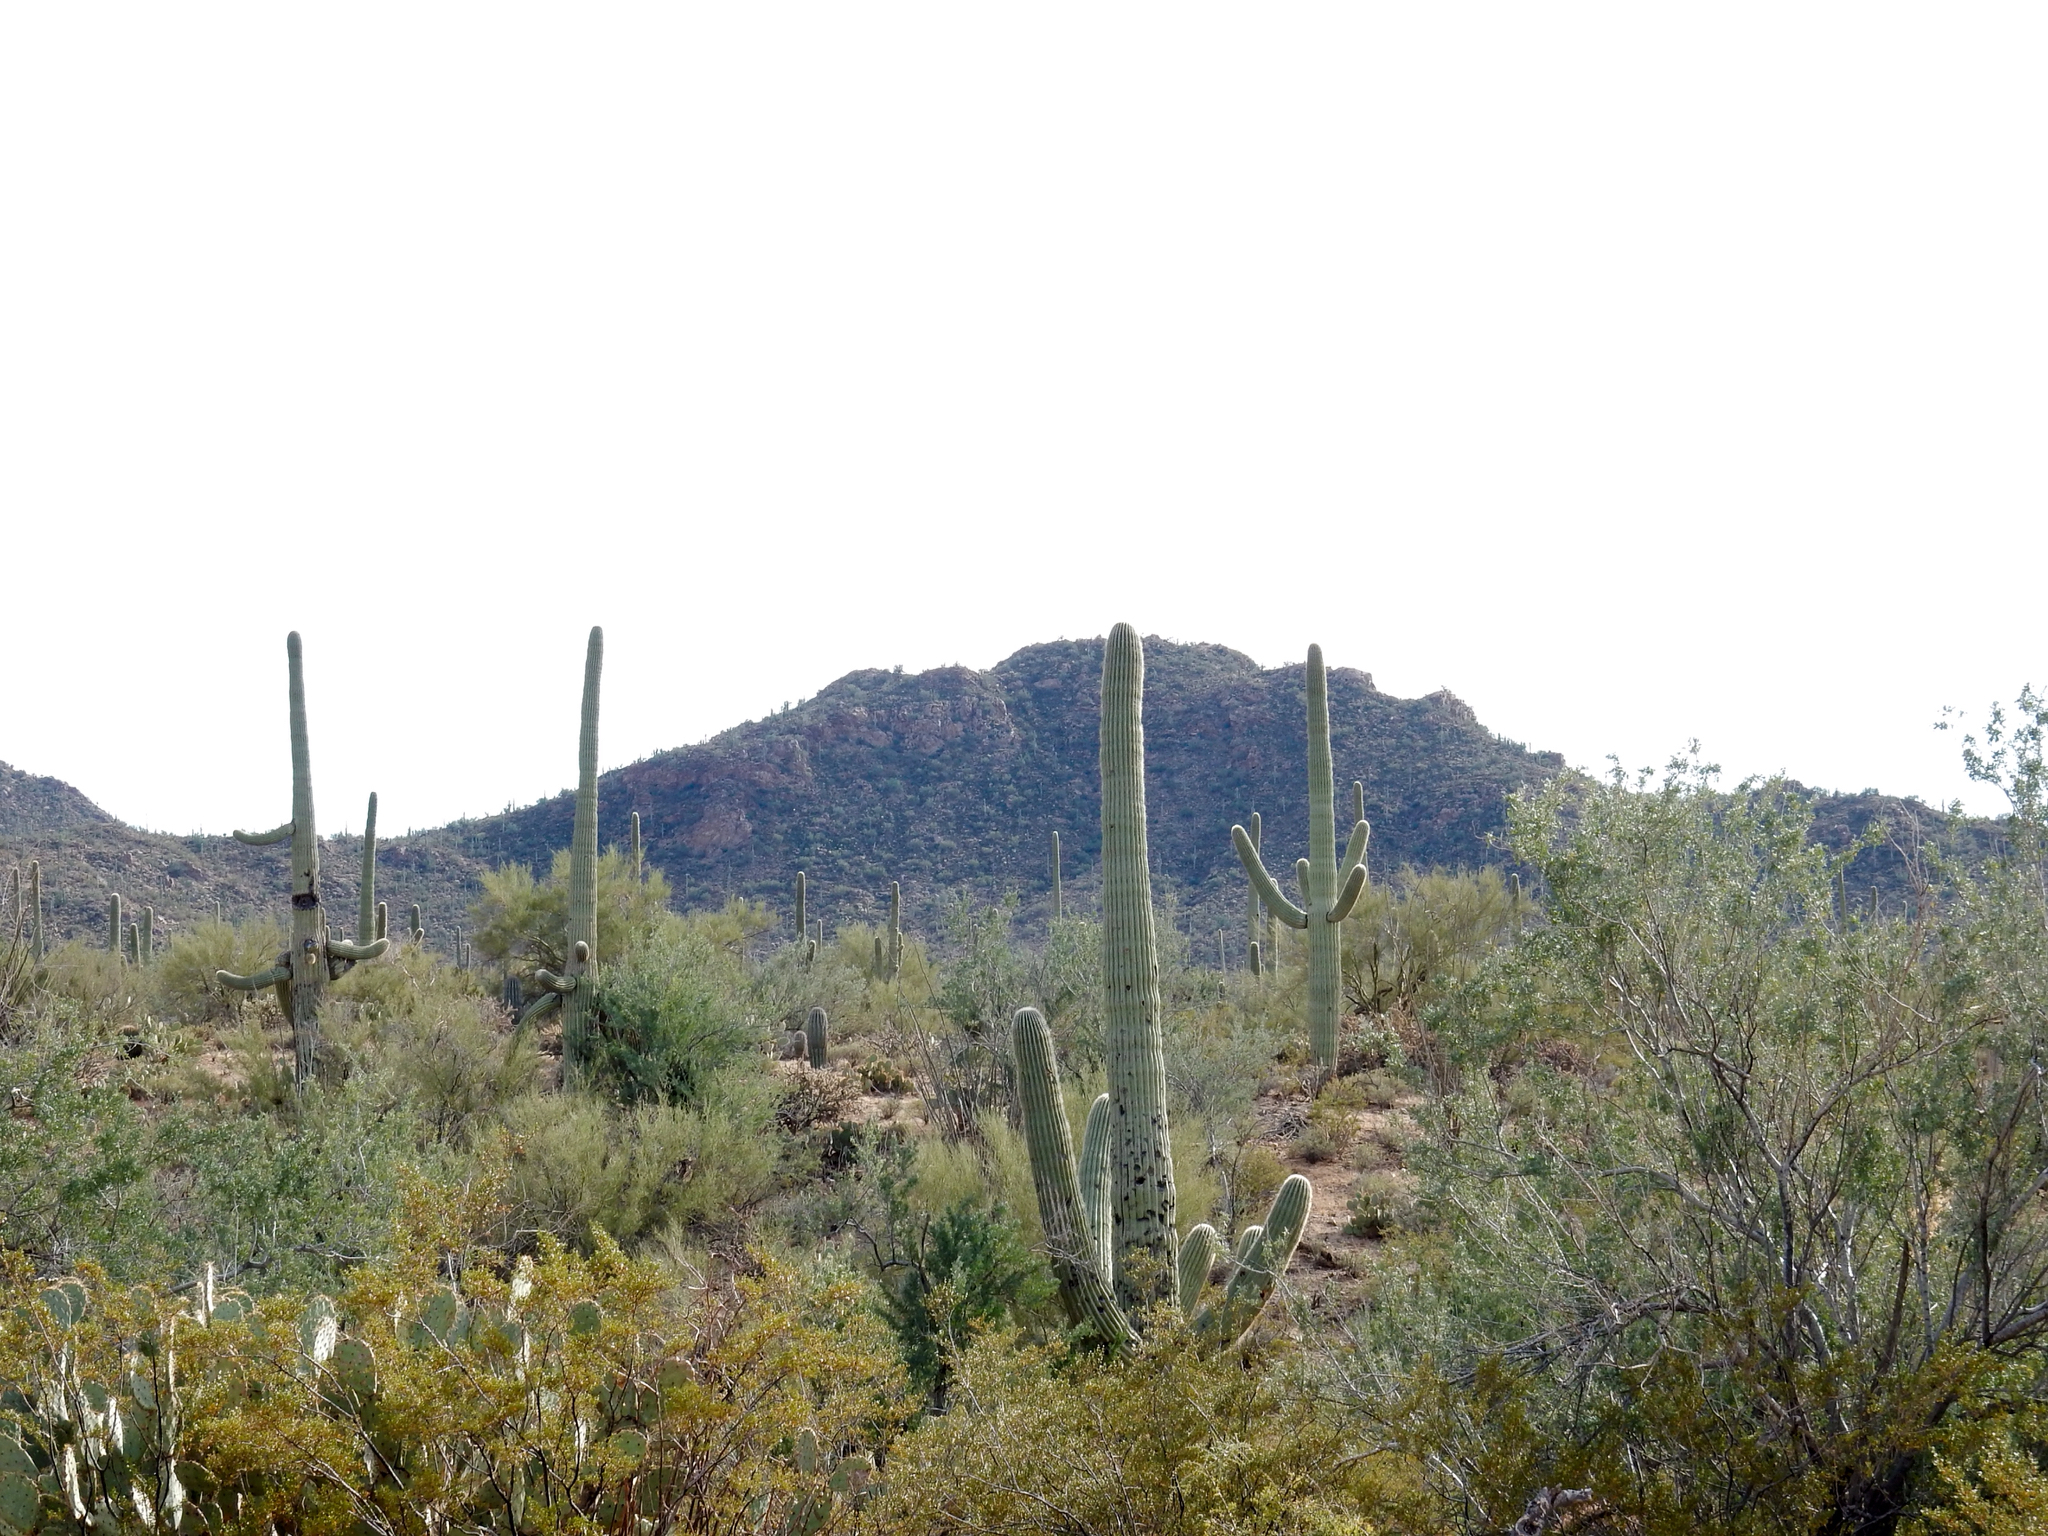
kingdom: Plantae
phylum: Tracheophyta
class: Magnoliopsida
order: Caryophyllales
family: Cactaceae
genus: Carnegiea
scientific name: Carnegiea gigantea
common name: Saguaro
